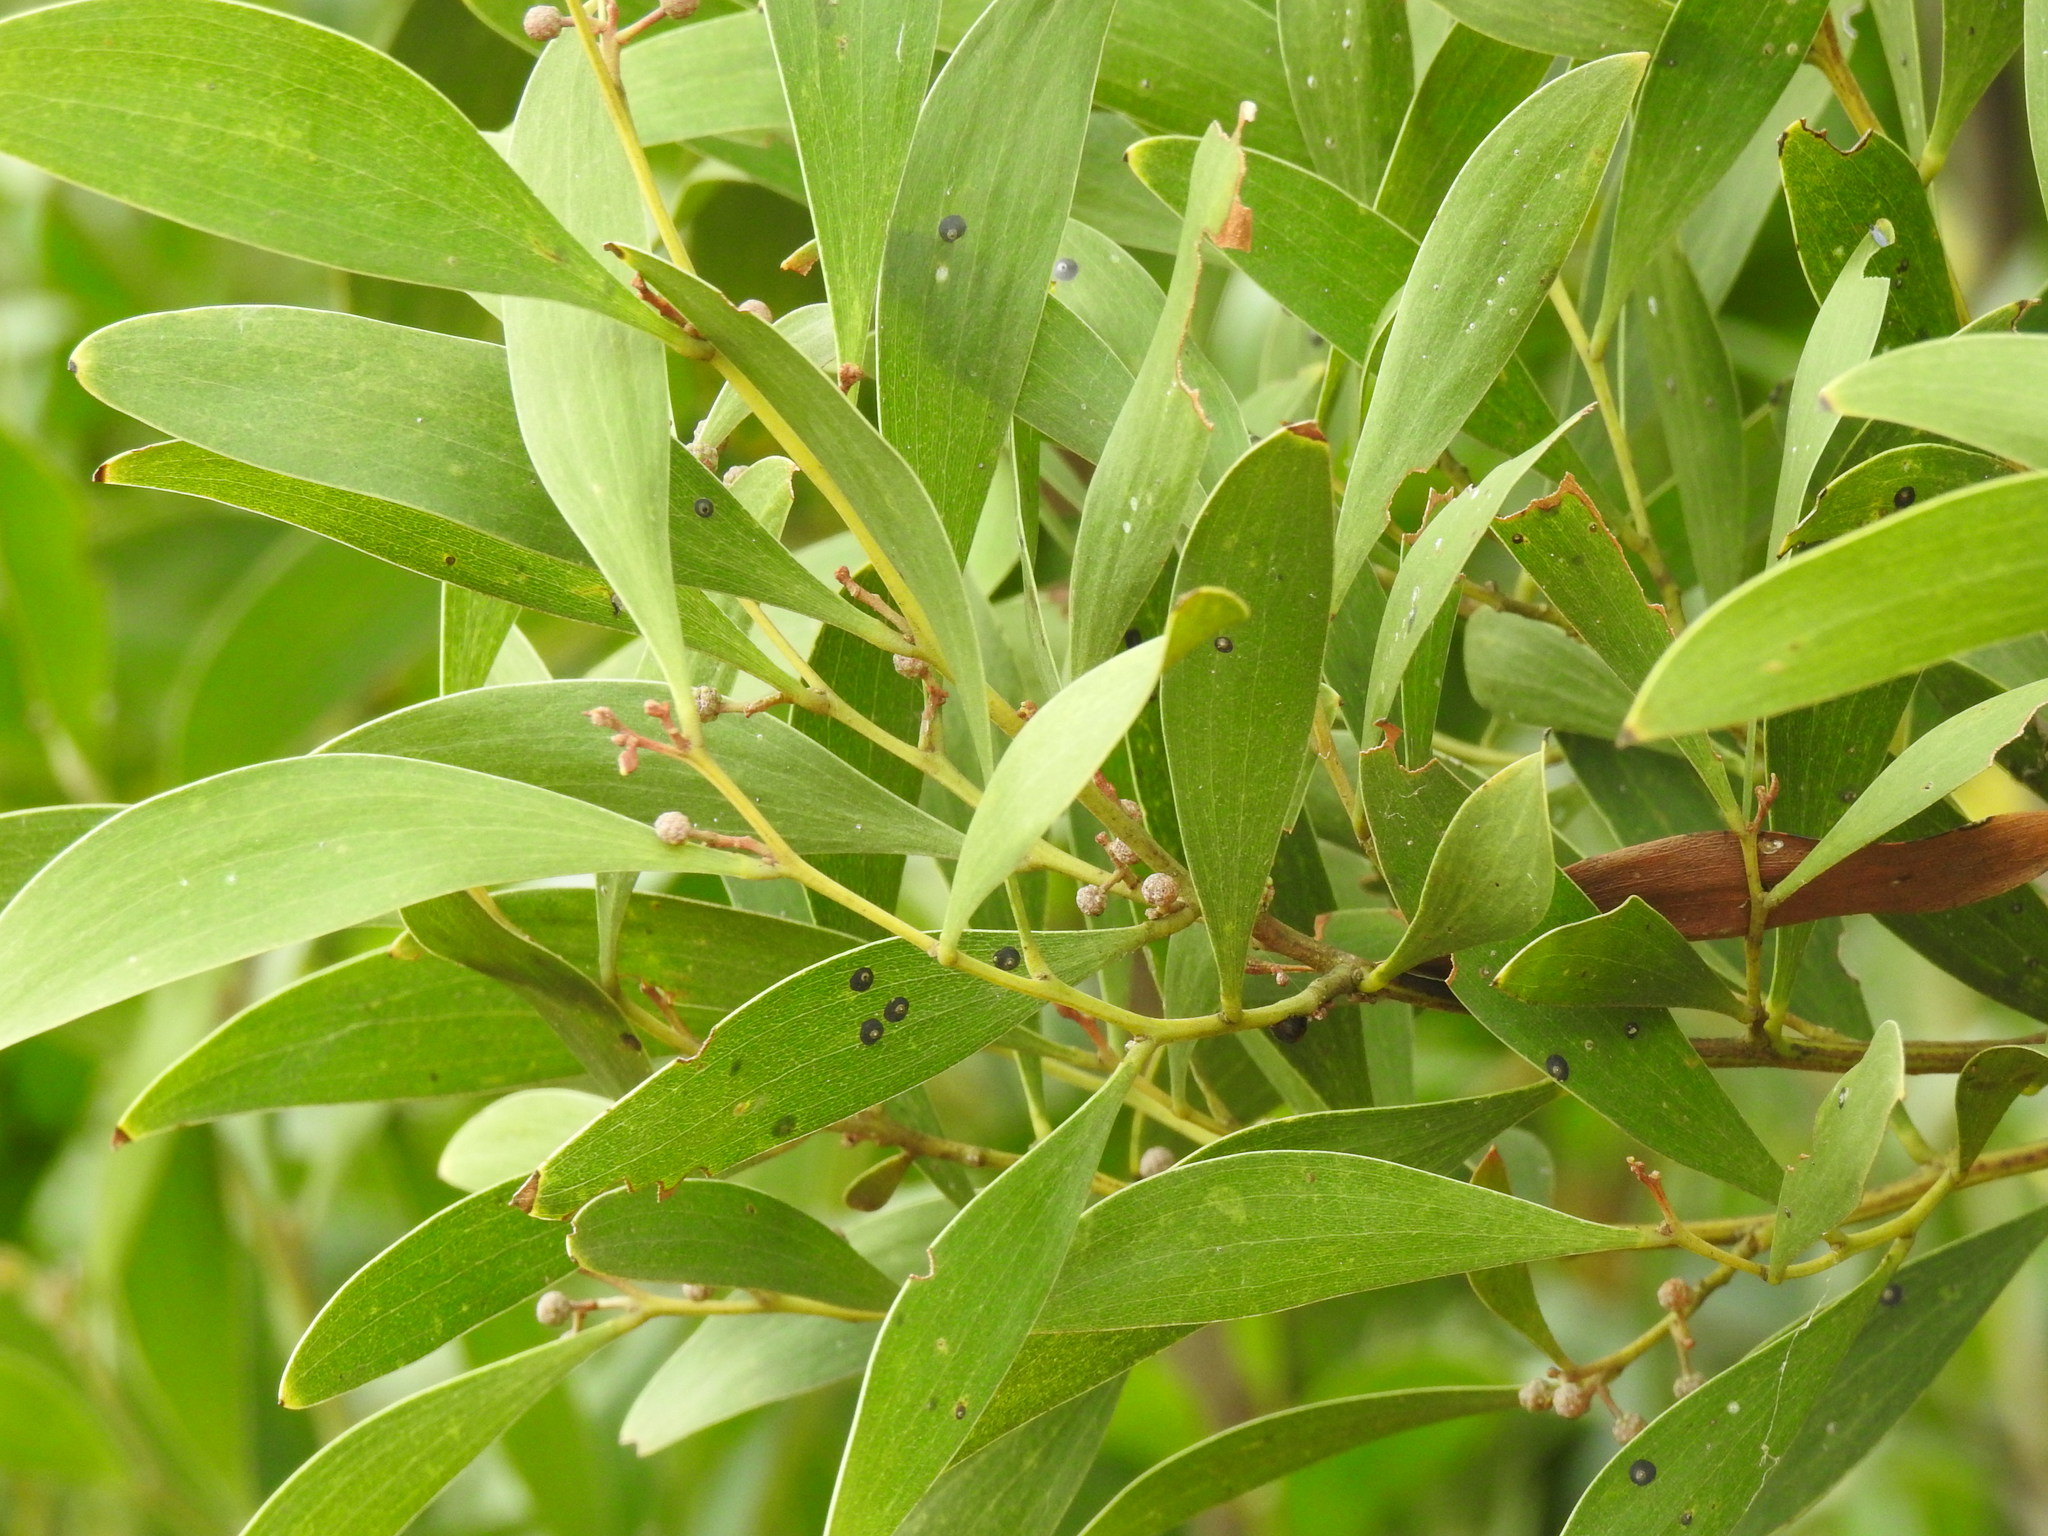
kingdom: Plantae
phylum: Tracheophyta
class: Magnoliopsida
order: Fabales
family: Fabaceae
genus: Acacia
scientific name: Acacia melanoxylon
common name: Blackwood
